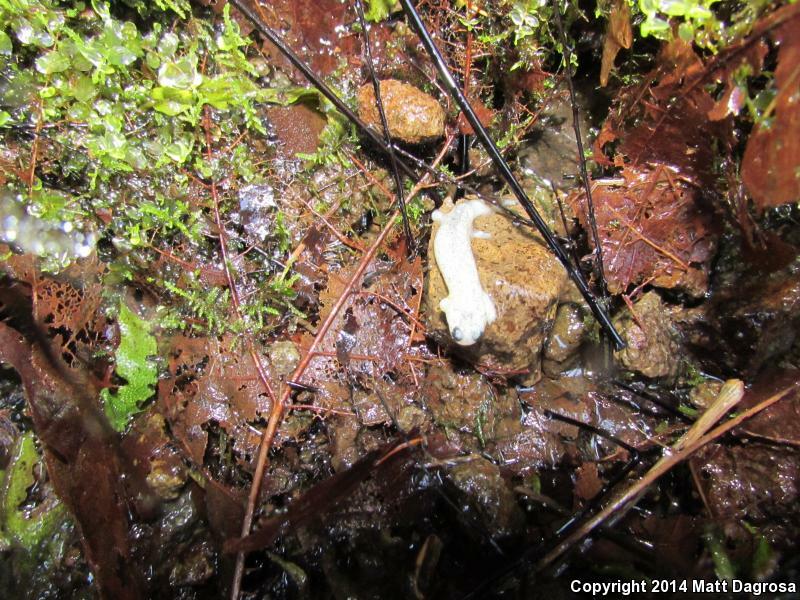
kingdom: Animalia
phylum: Chordata
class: Amphibia
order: Caudata
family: Rhyacotritonidae
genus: Rhyacotriton
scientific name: Rhyacotriton cascadae
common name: Cascade torrent salamander
